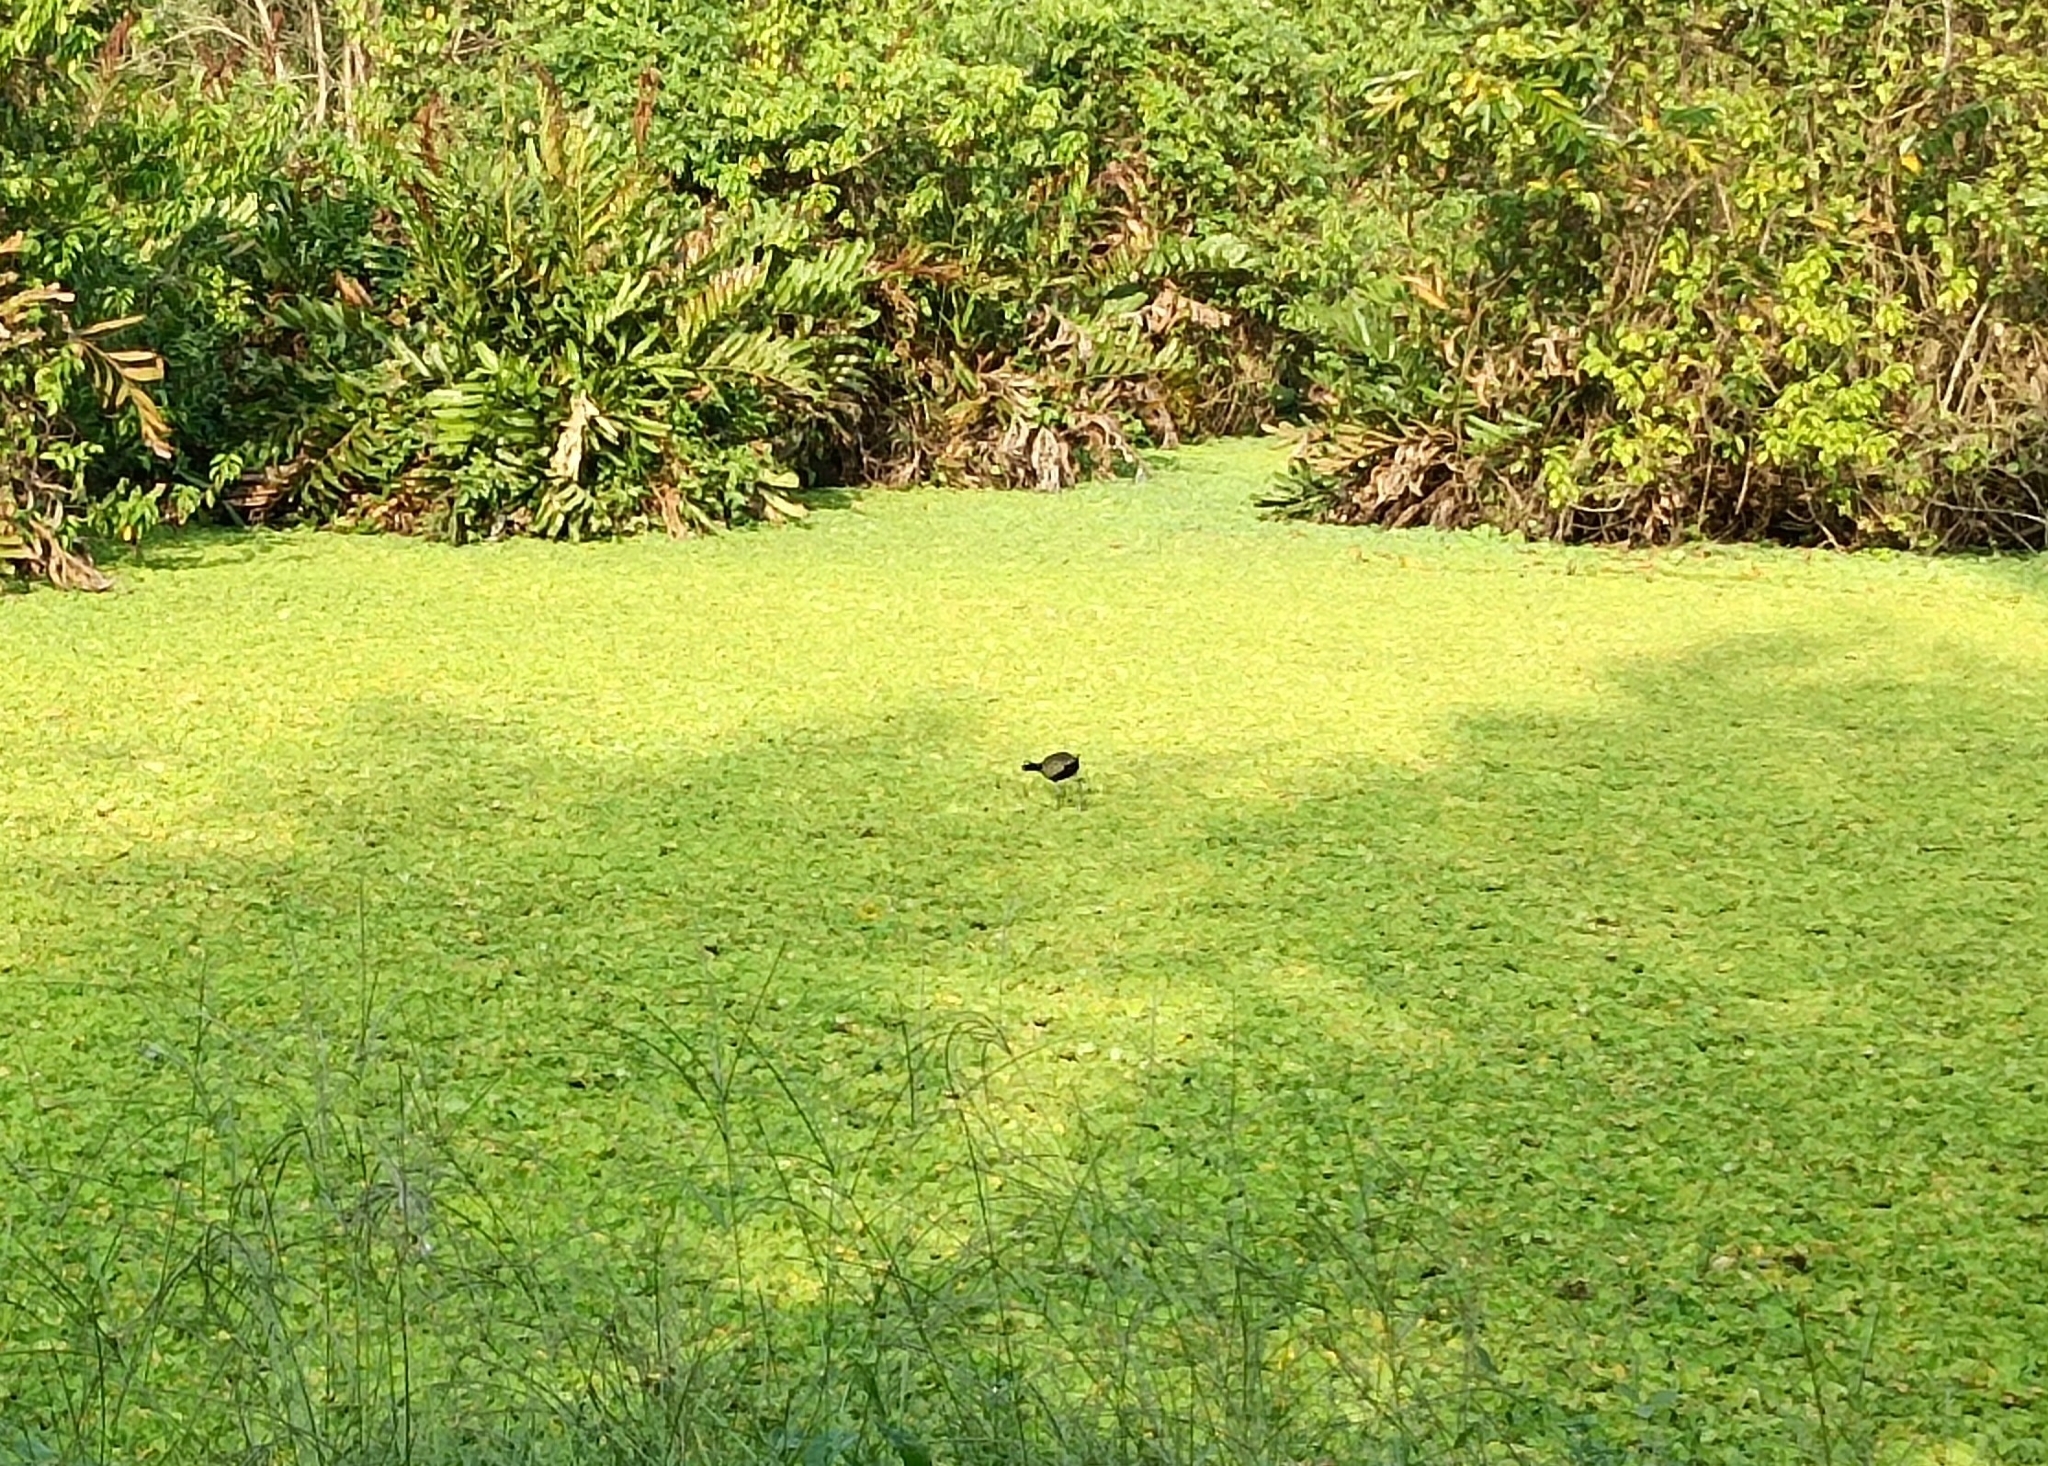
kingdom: Animalia
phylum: Chordata
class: Aves
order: Charadriiformes
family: Jacanidae
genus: Metopidius
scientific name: Metopidius indicus
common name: Bronze-winged jacana
